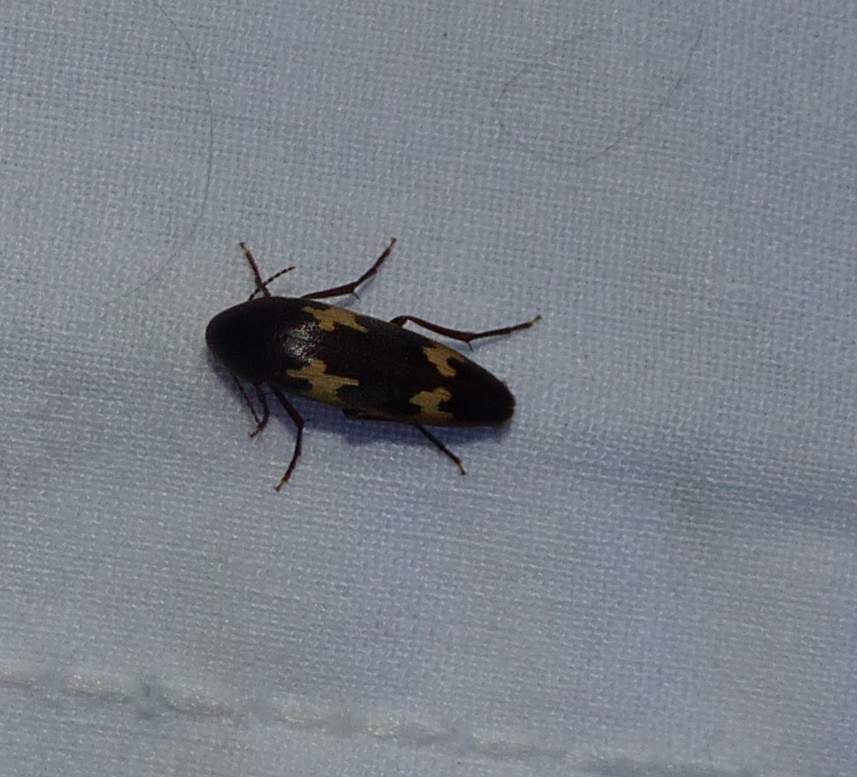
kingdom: Animalia
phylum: Arthropoda
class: Insecta
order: Coleoptera
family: Melandryidae
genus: Dircaea
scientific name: Dircaea liturata
